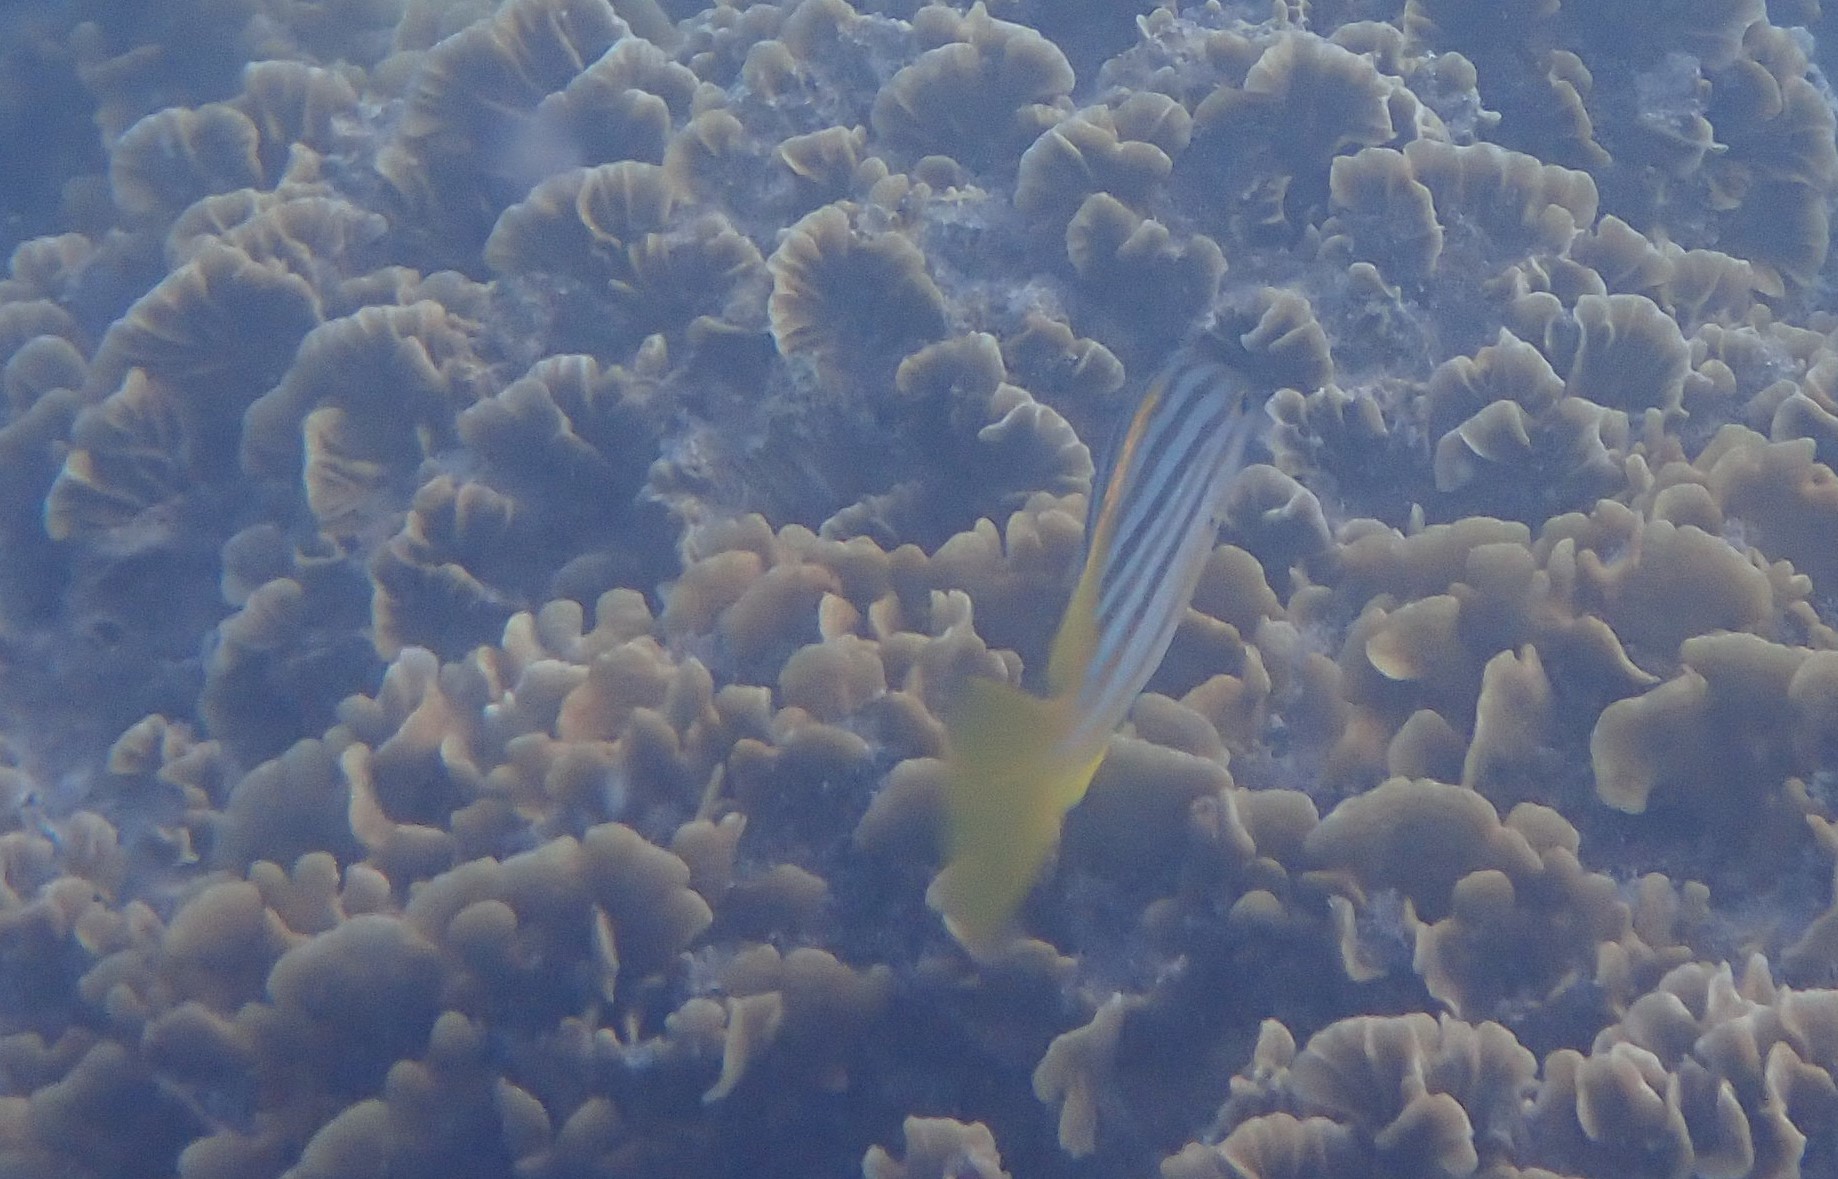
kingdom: Animalia
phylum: Chordata
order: Perciformes
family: Lutjanidae
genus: Lutjanus
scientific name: Lutjanus carponotatus
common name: Spanish flag
